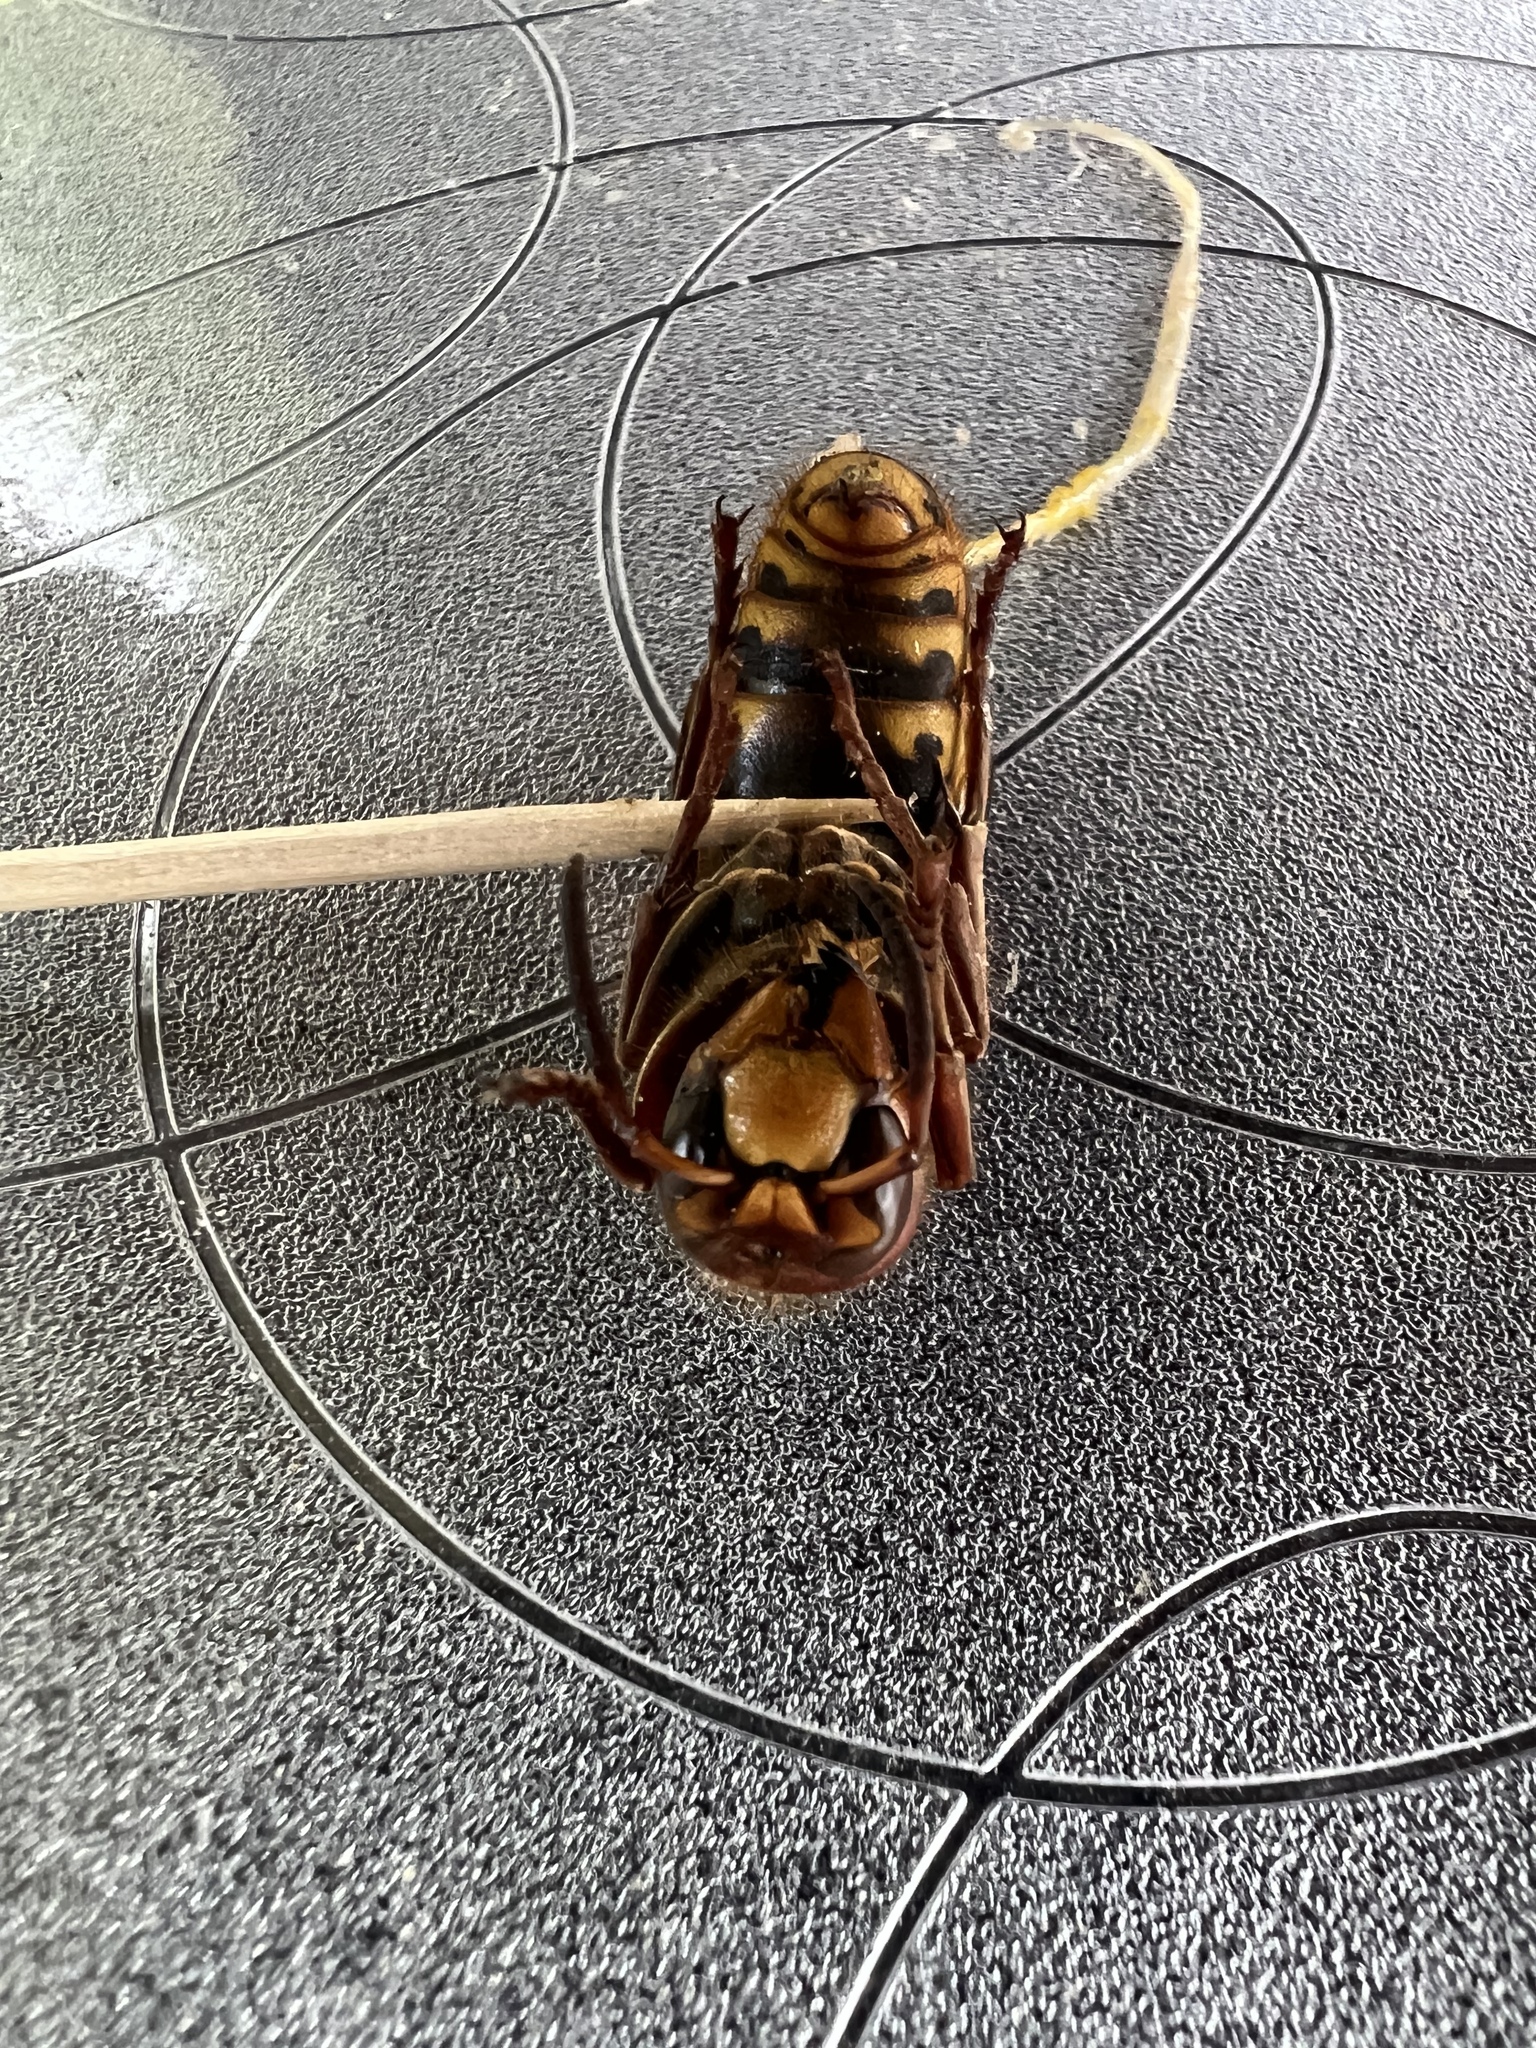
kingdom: Animalia
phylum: Arthropoda
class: Insecta
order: Hymenoptera
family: Vespidae
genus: Vespa
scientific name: Vespa crabro
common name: Hornet
